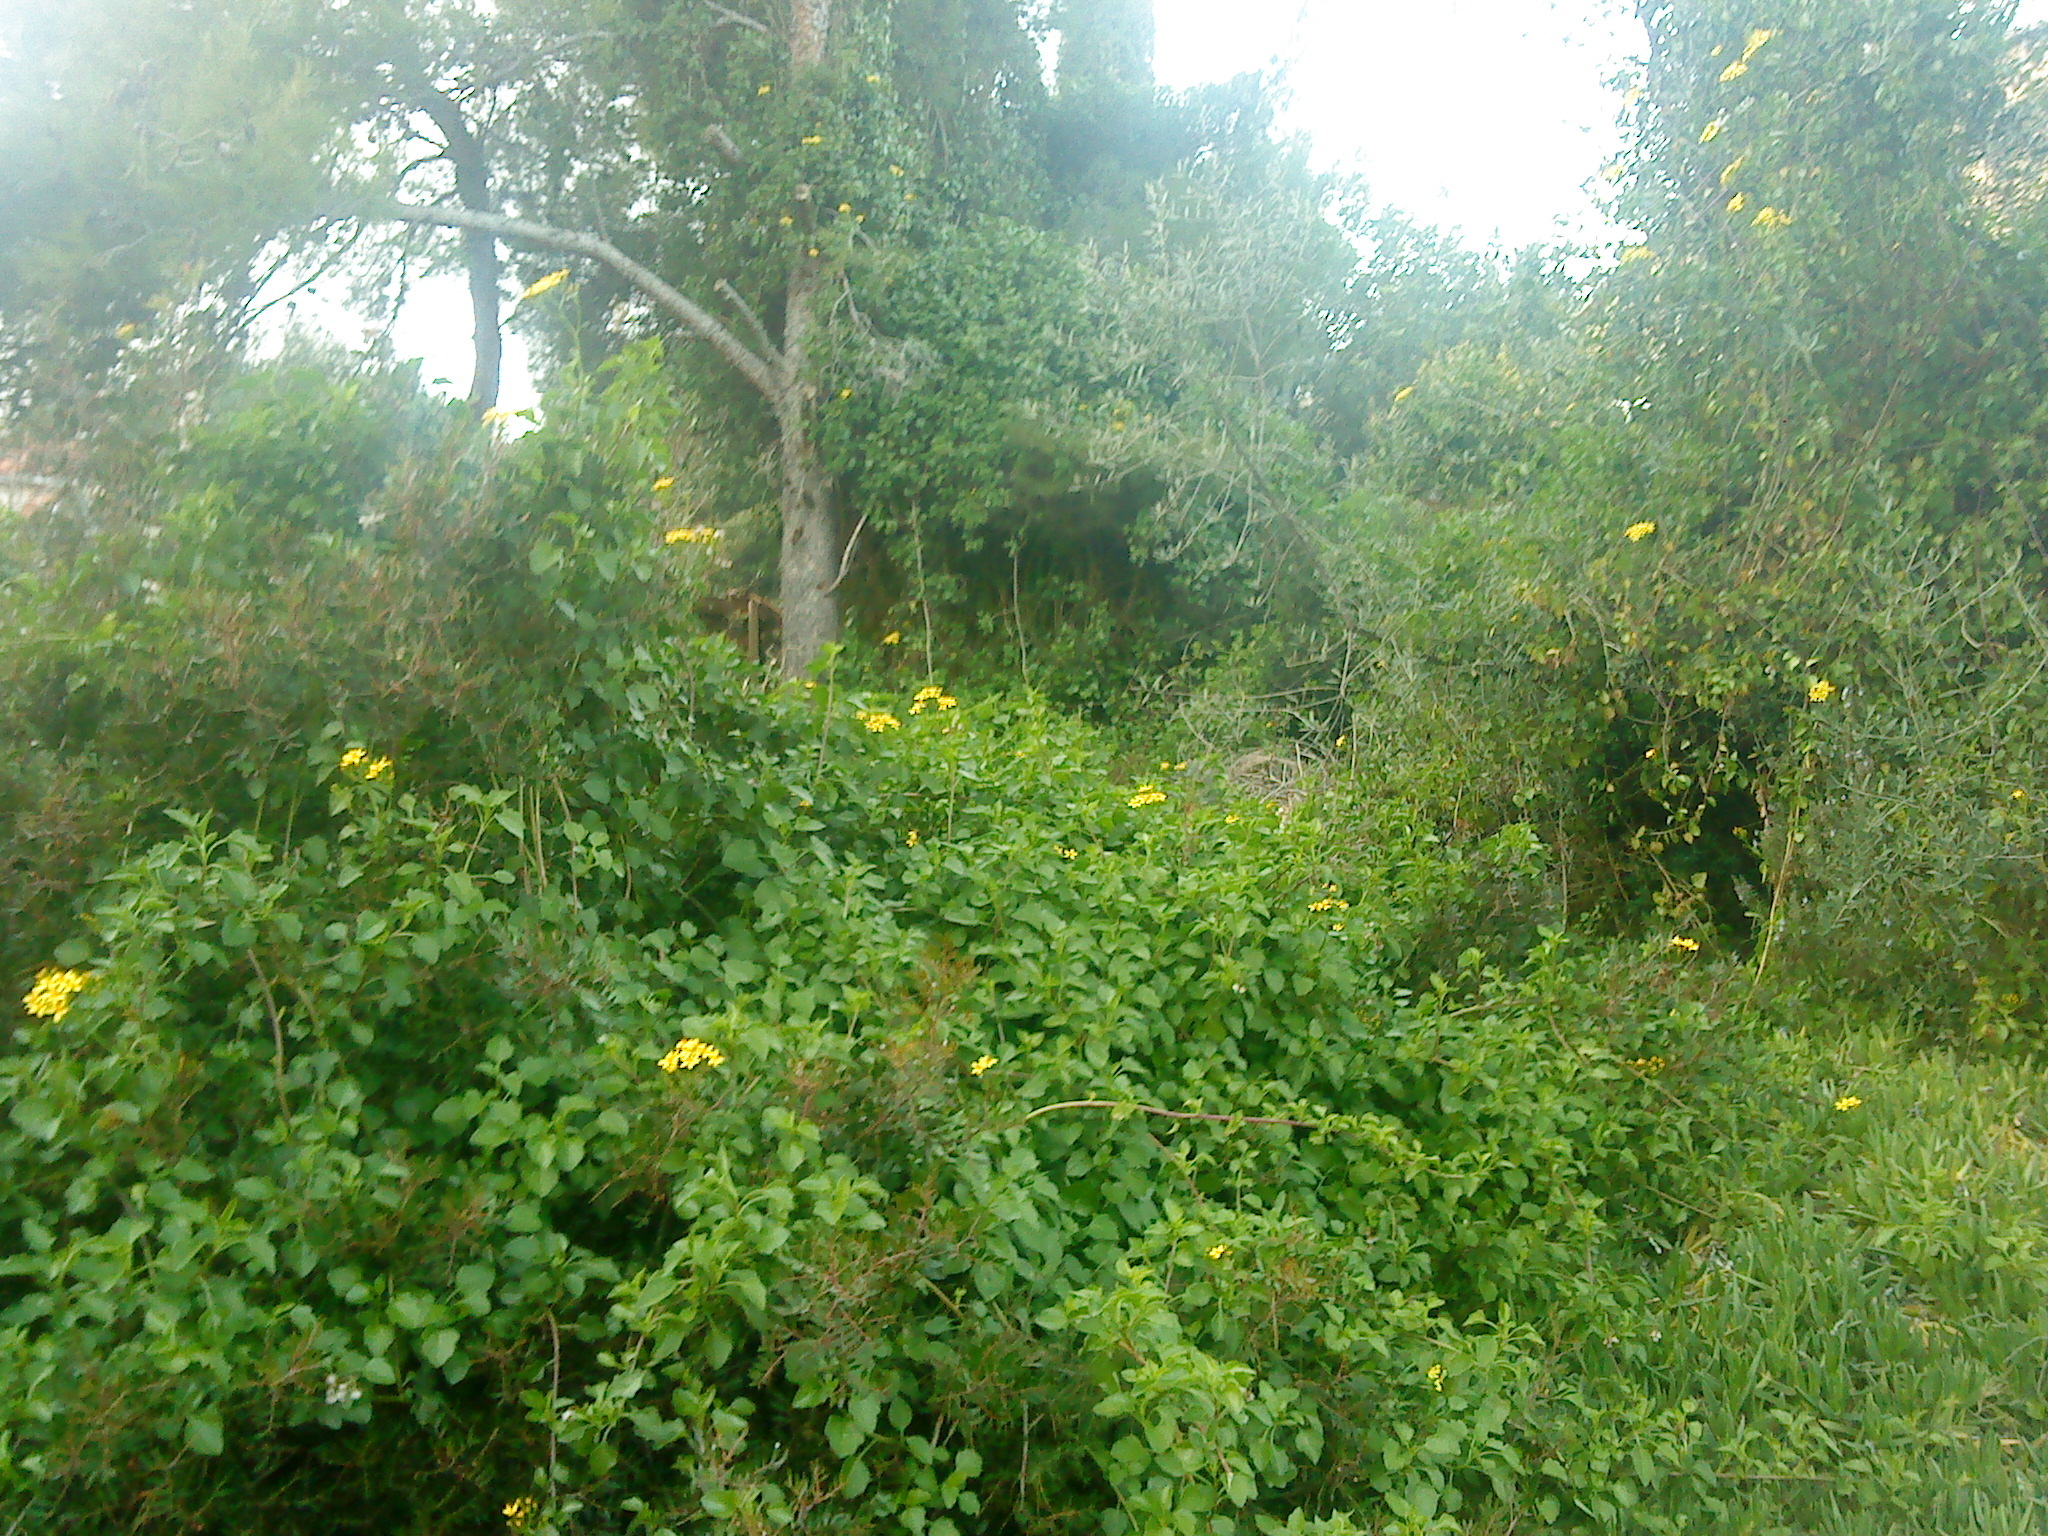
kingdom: Plantae
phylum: Tracheophyta
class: Magnoliopsida
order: Asterales
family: Asteraceae
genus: Senecio
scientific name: Senecio angulatus
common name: Climbing groundsel
